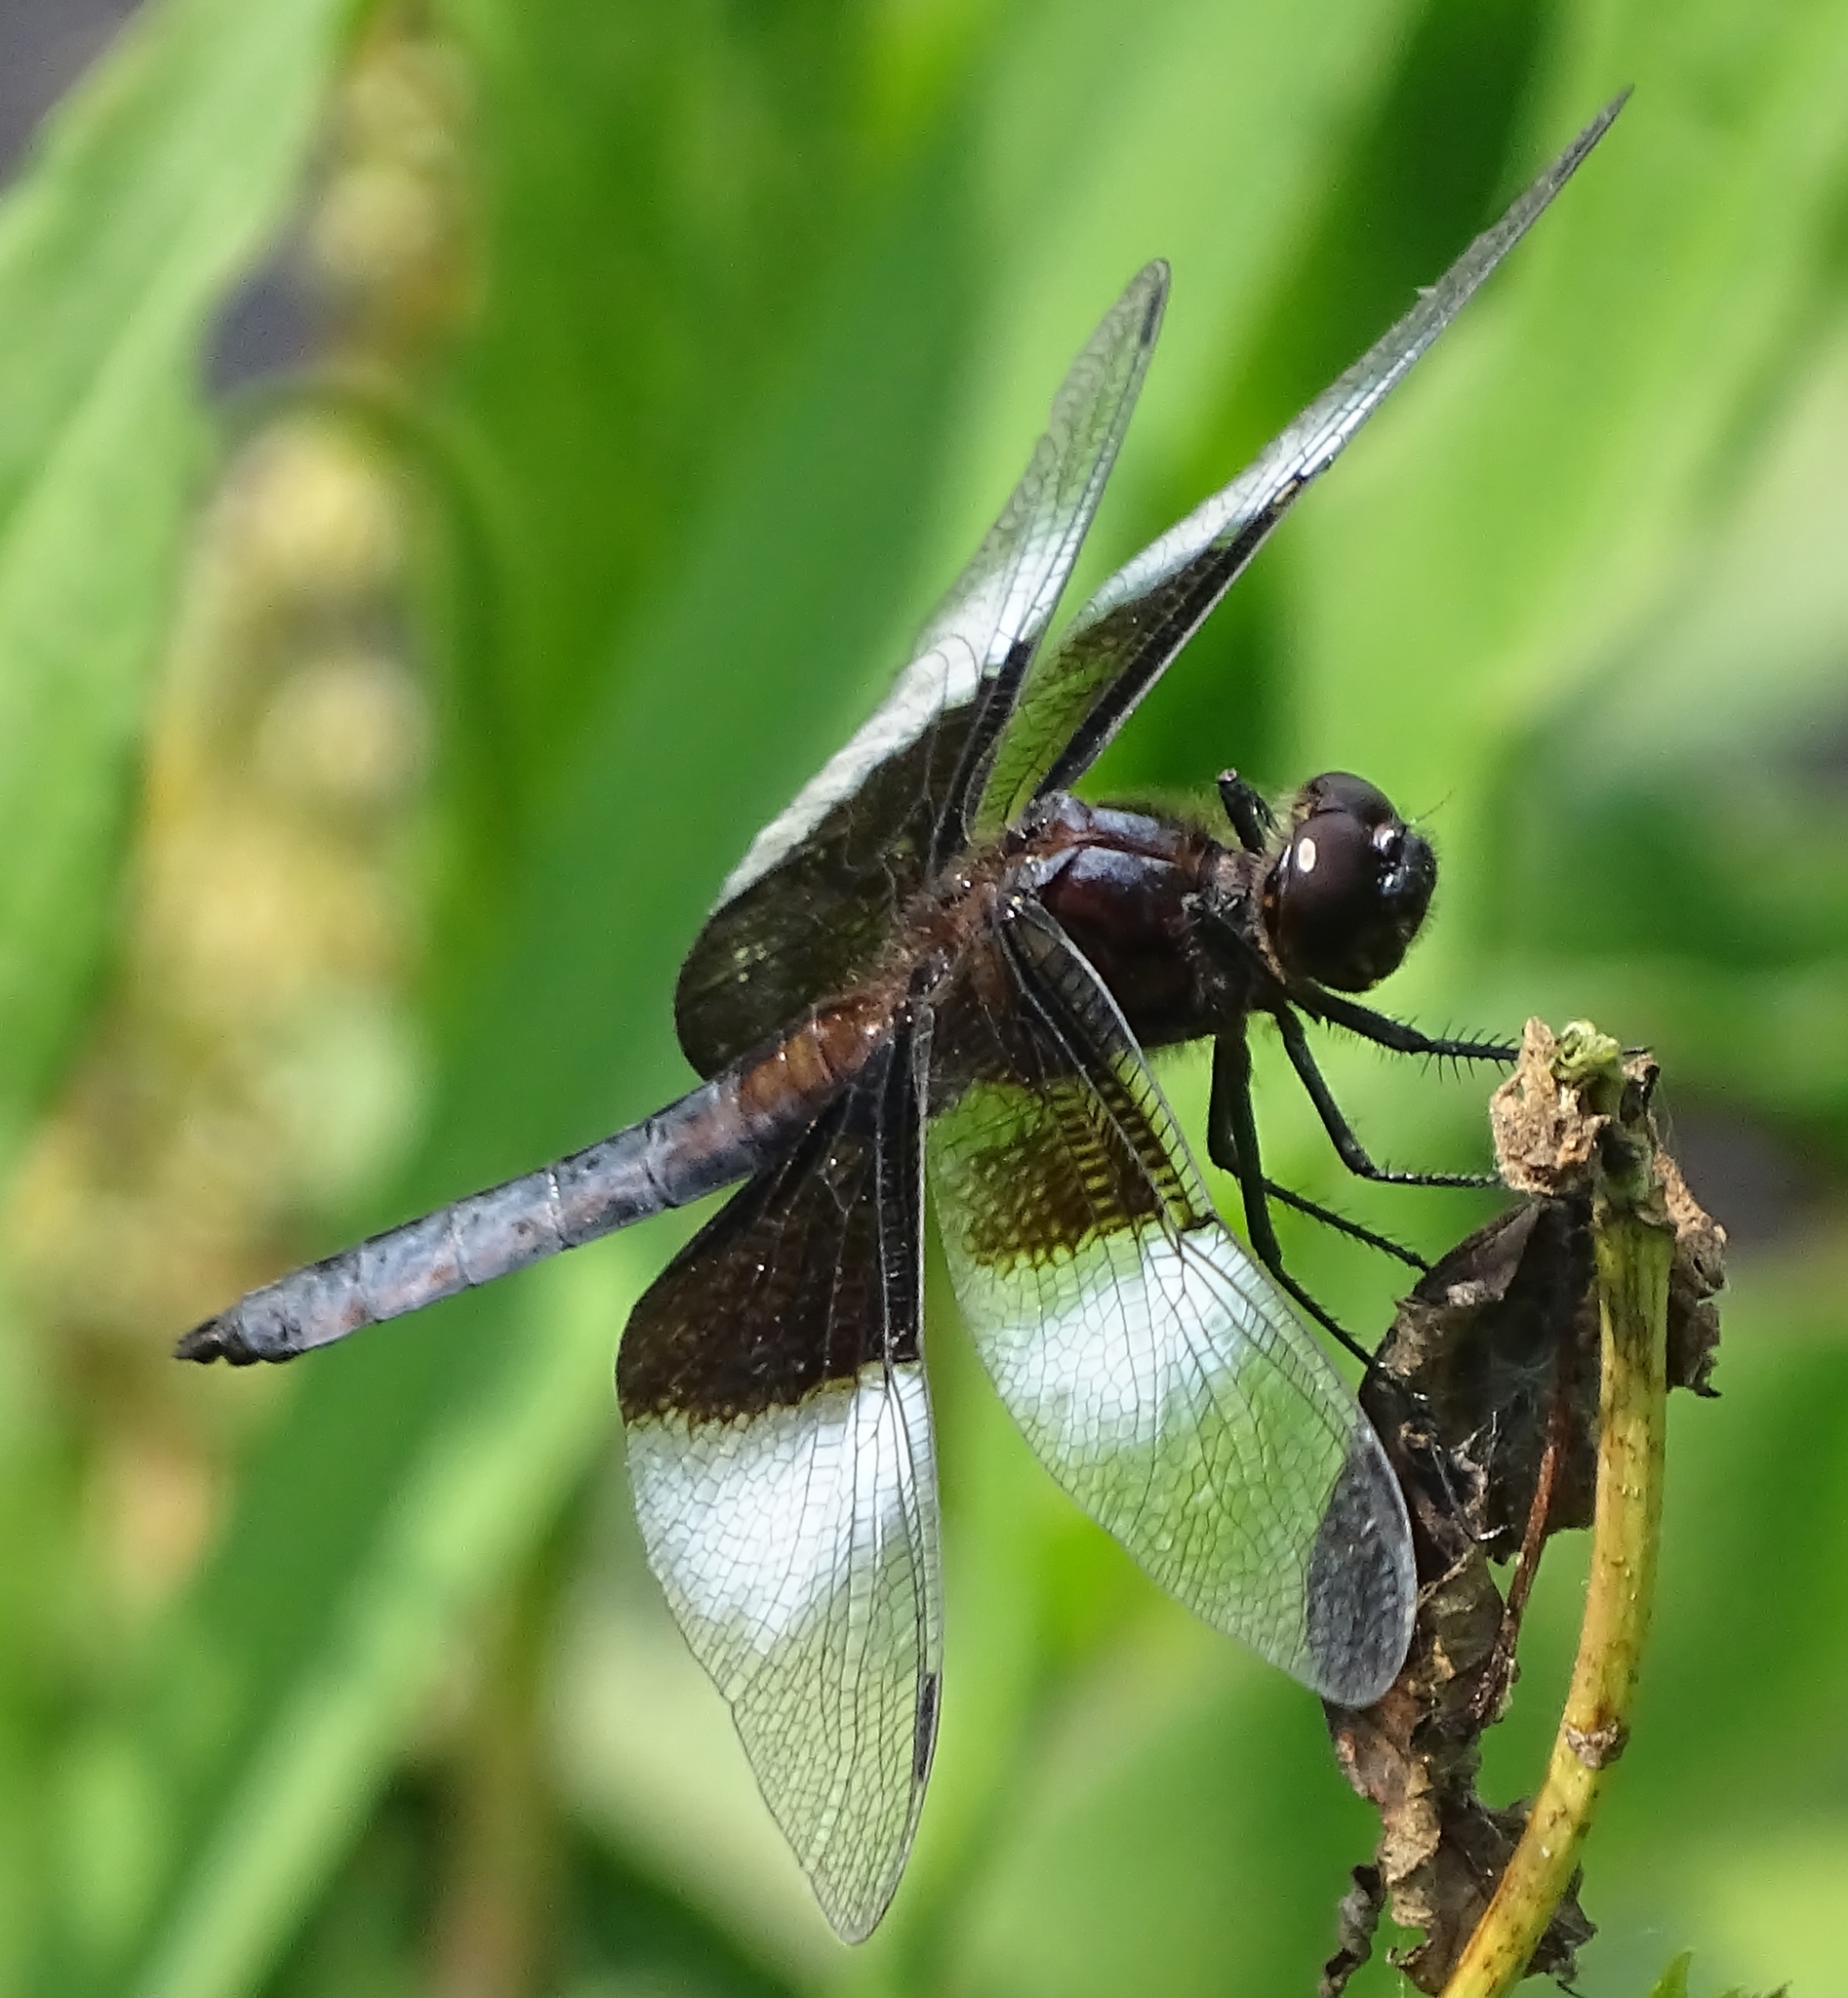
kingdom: Animalia
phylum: Arthropoda
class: Insecta
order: Odonata
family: Libellulidae
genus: Libellula
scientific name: Libellula luctuosa
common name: Widow skimmer
